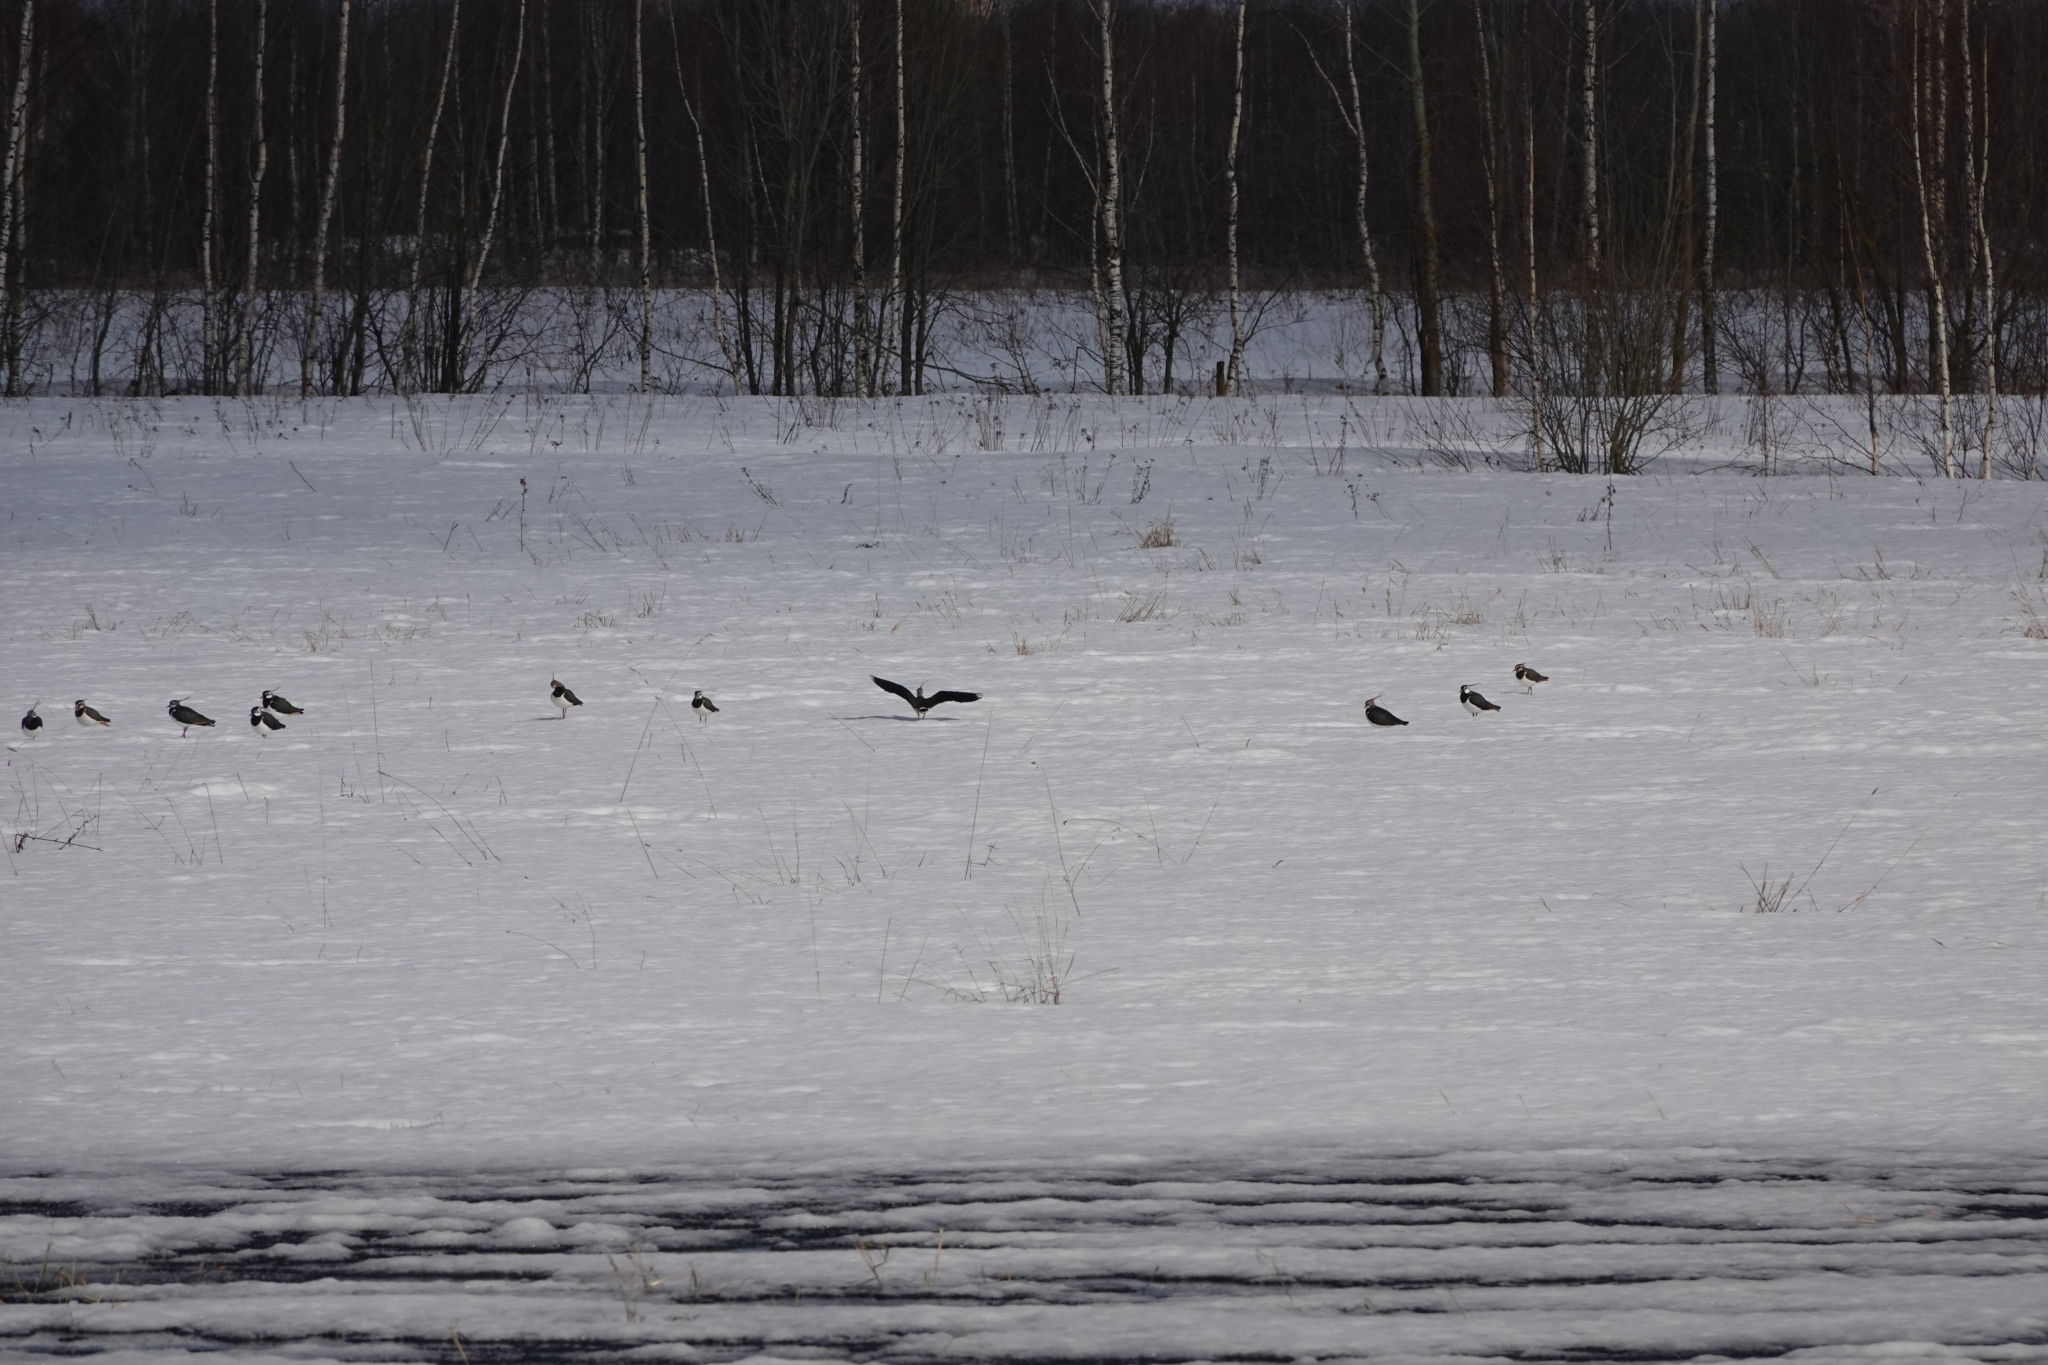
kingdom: Animalia
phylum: Chordata
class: Aves
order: Charadriiformes
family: Charadriidae
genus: Vanellus
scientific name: Vanellus vanellus
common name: Northern lapwing
